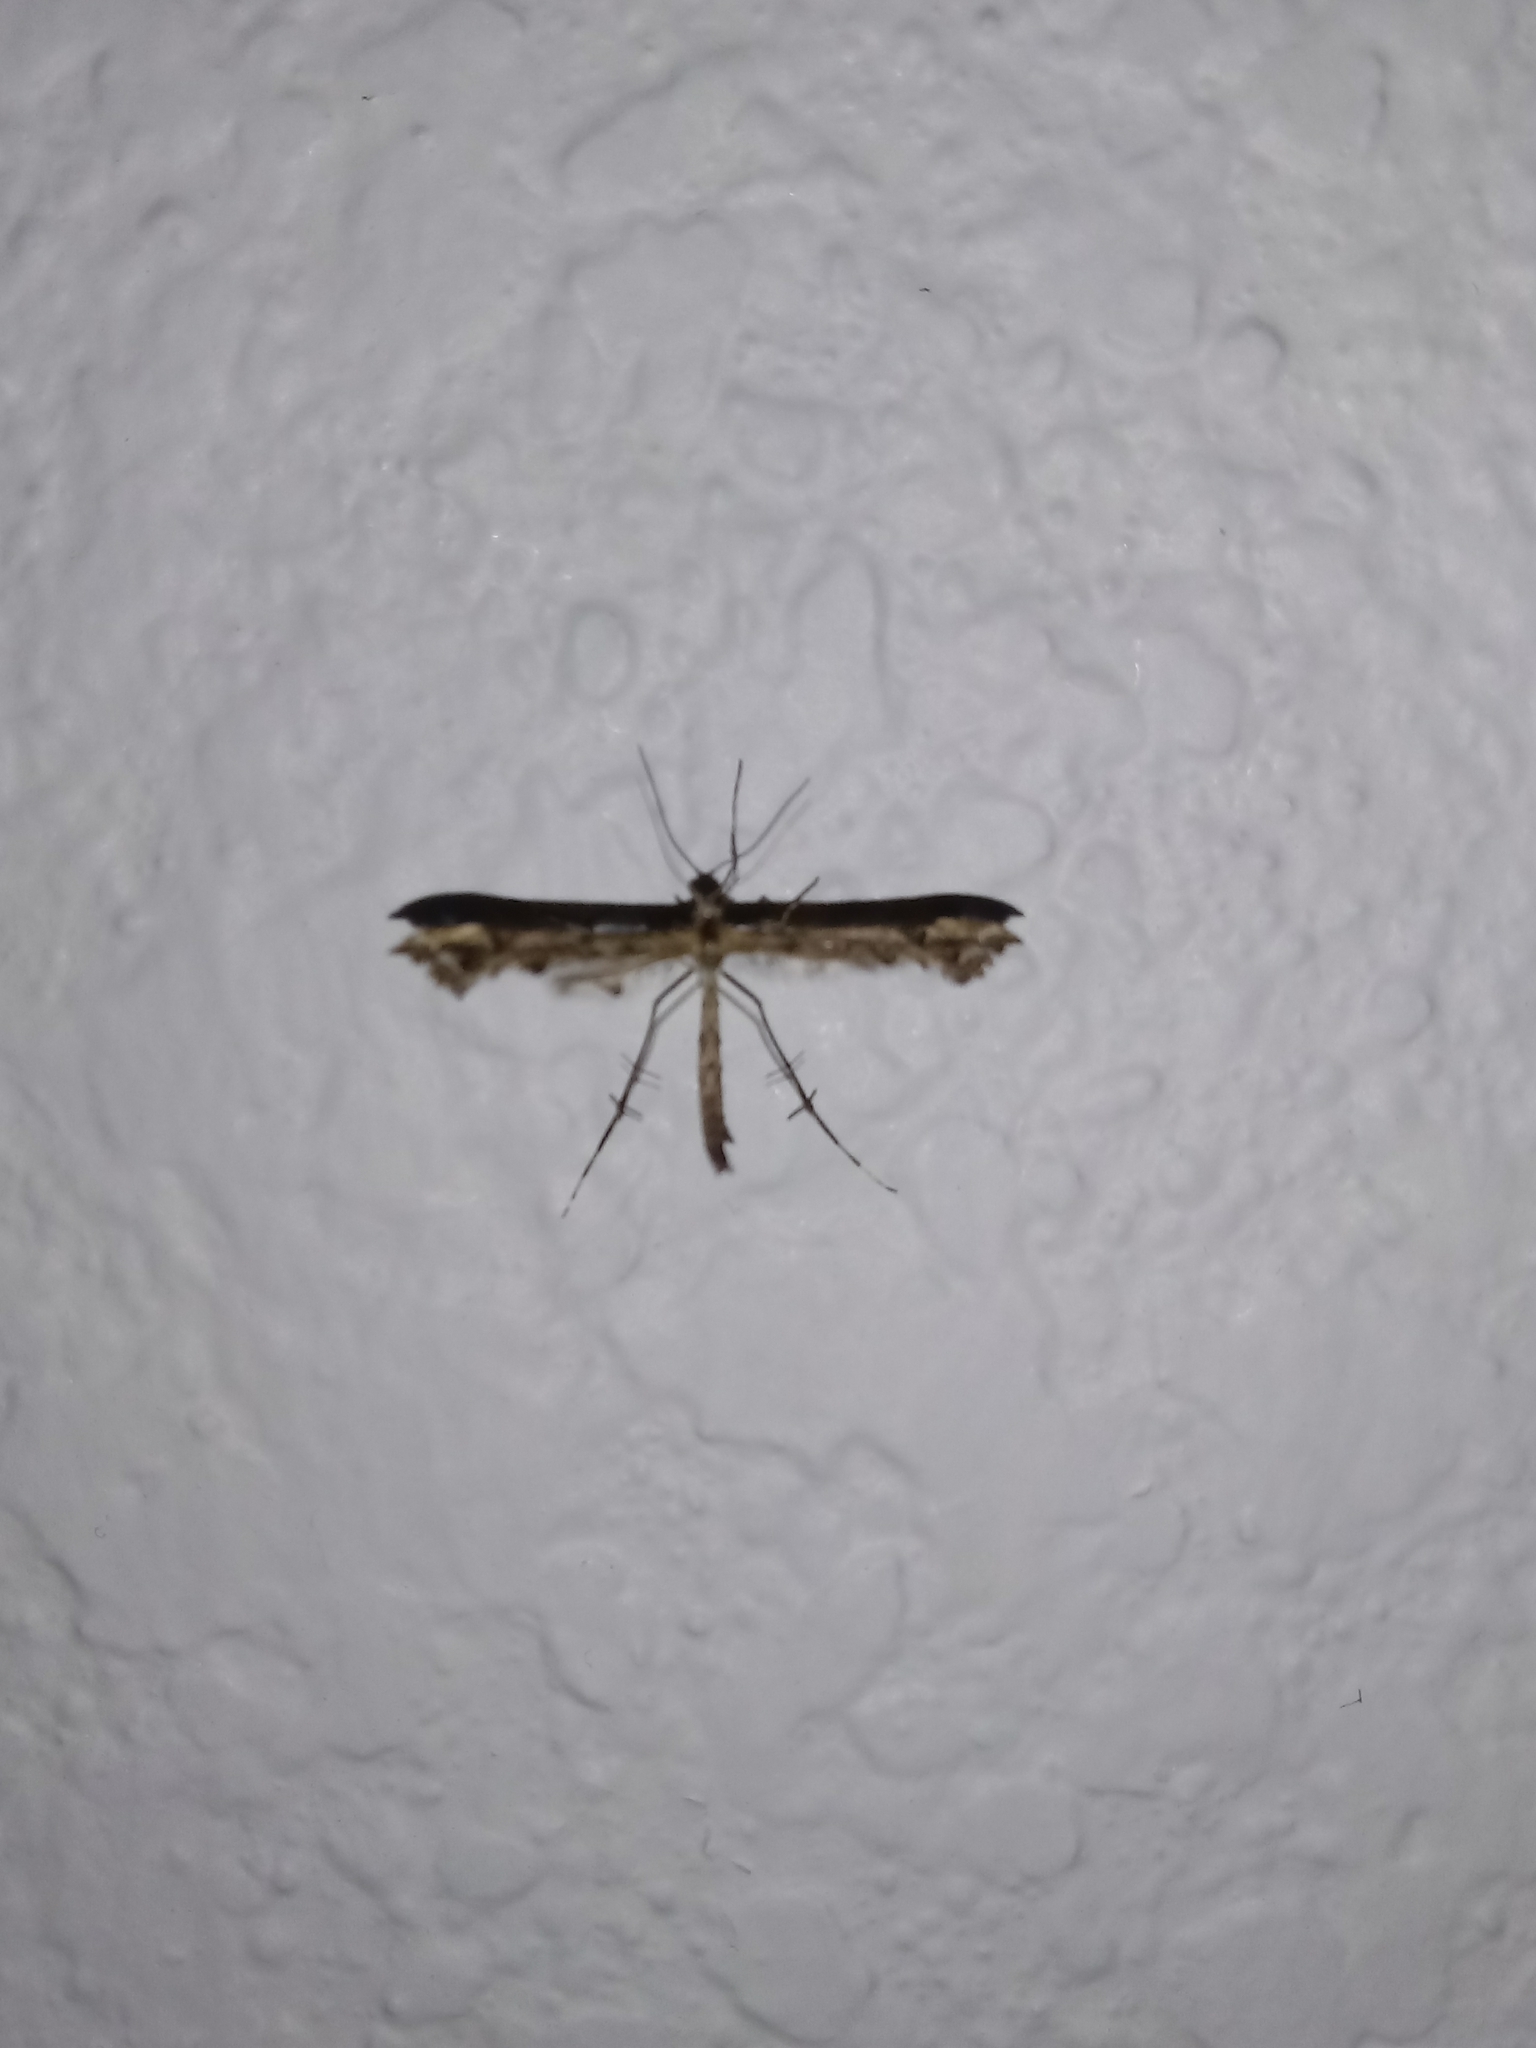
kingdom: Animalia
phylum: Arthropoda
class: Insecta
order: Lepidoptera
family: Pterophoridae
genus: Anstenoptilia
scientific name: Anstenoptilia marmarodactyla
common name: Moth
